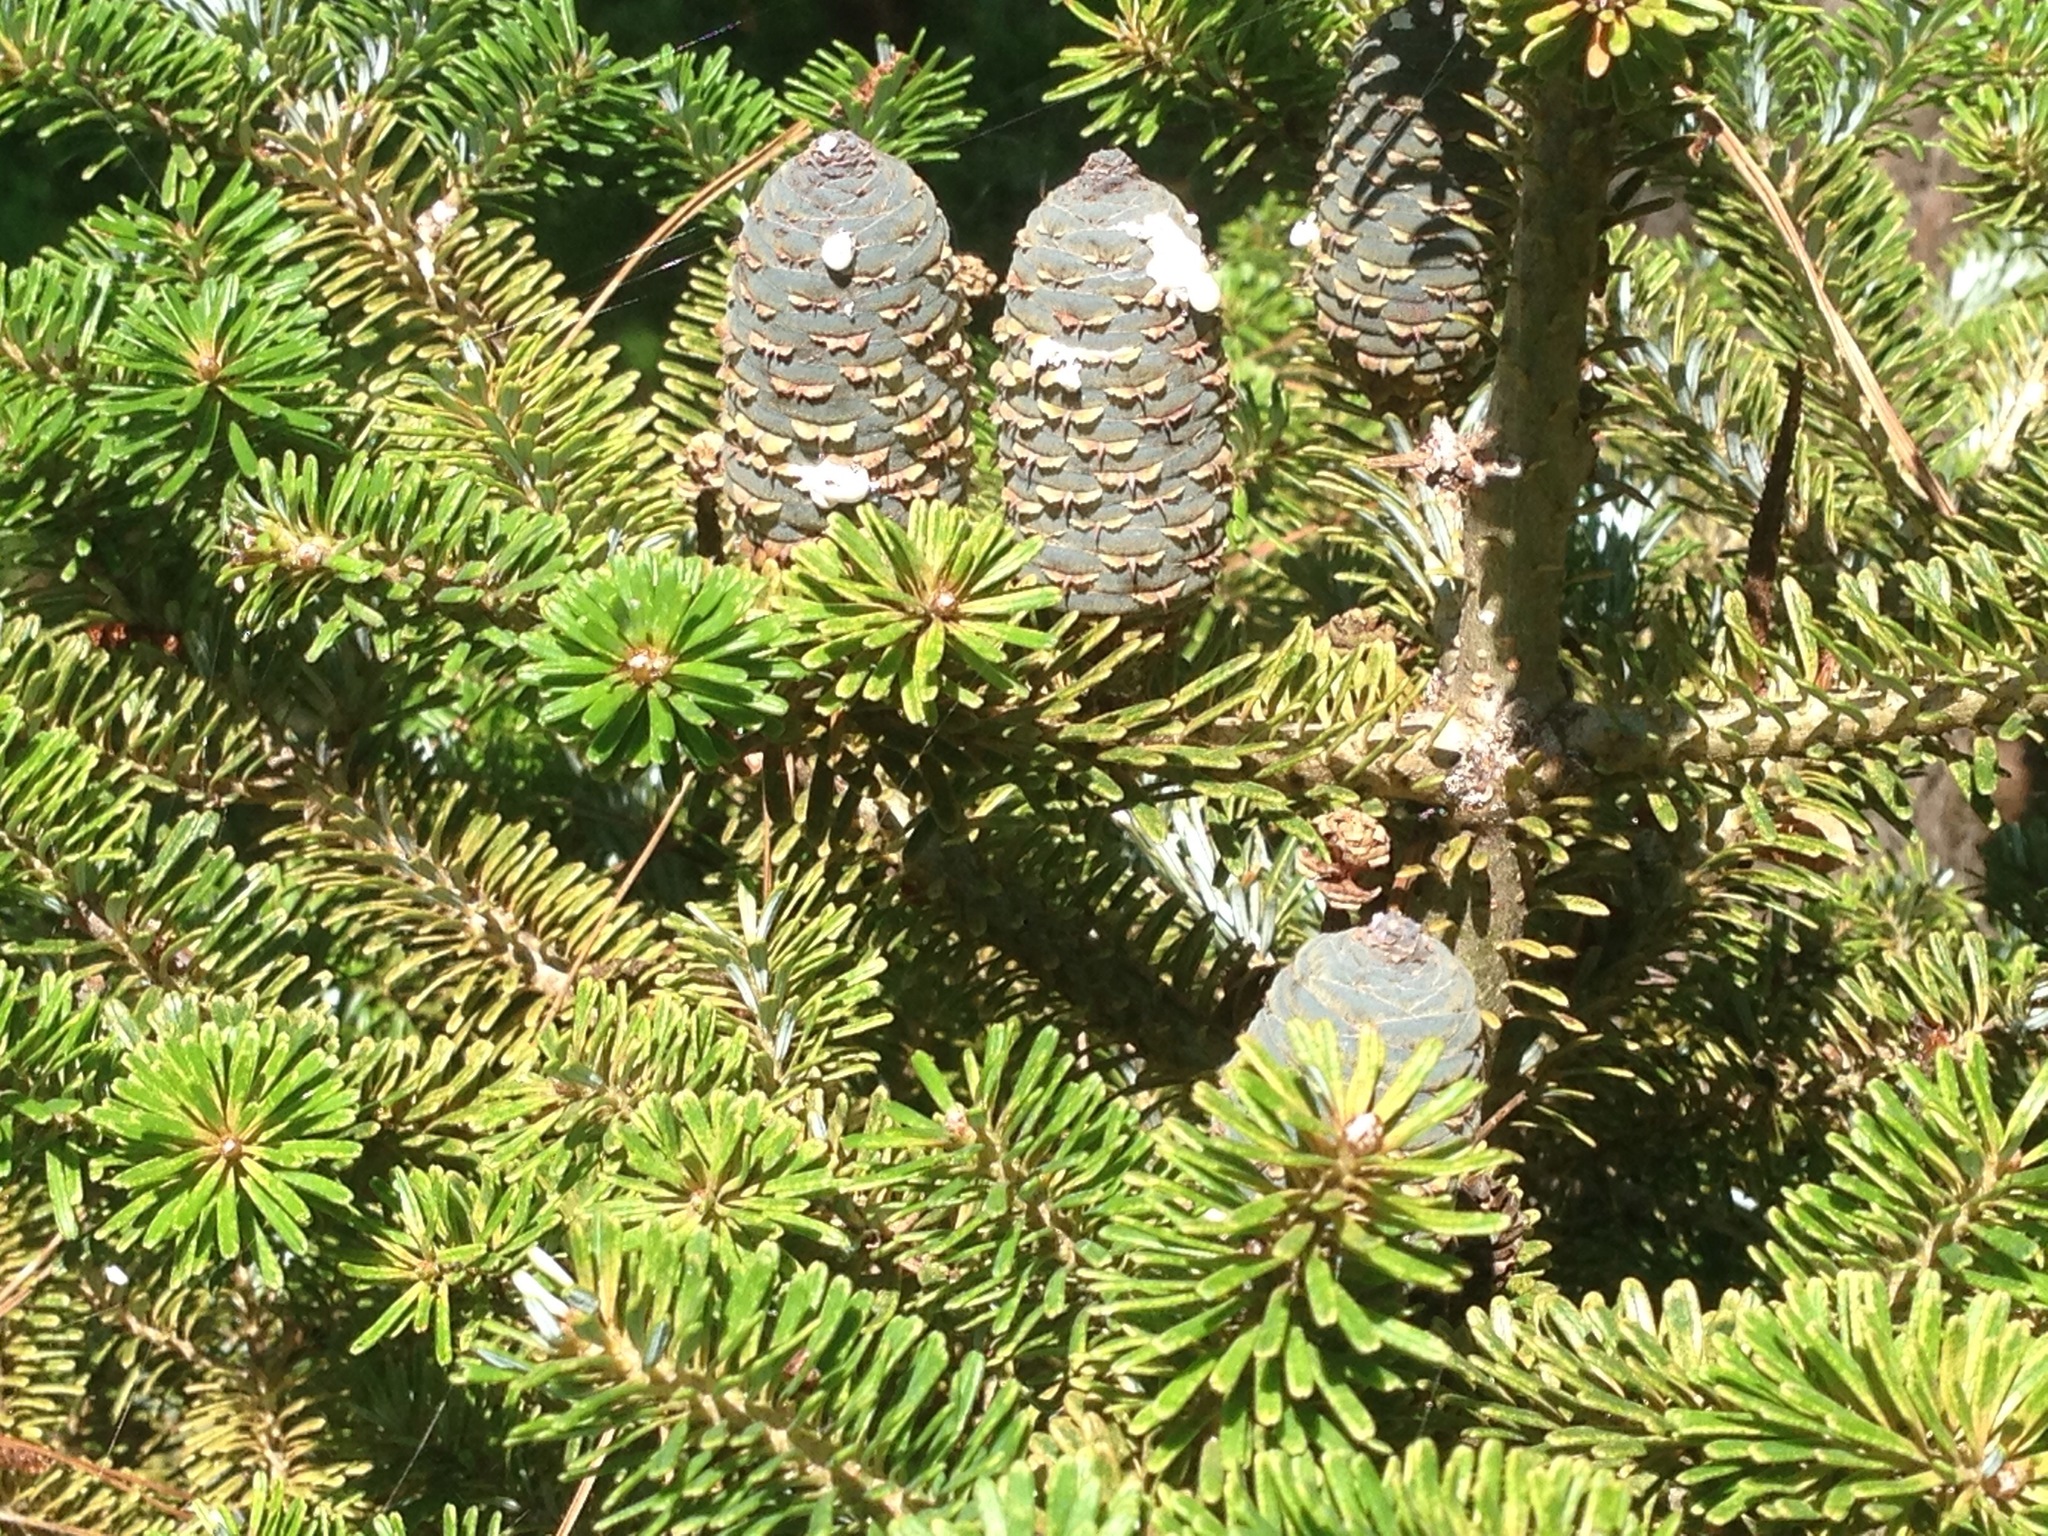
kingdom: Plantae
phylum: Tracheophyta
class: Pinopsida
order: Pinales
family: Pinaceae
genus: Abies
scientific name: Abies koreana
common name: Korean fir
